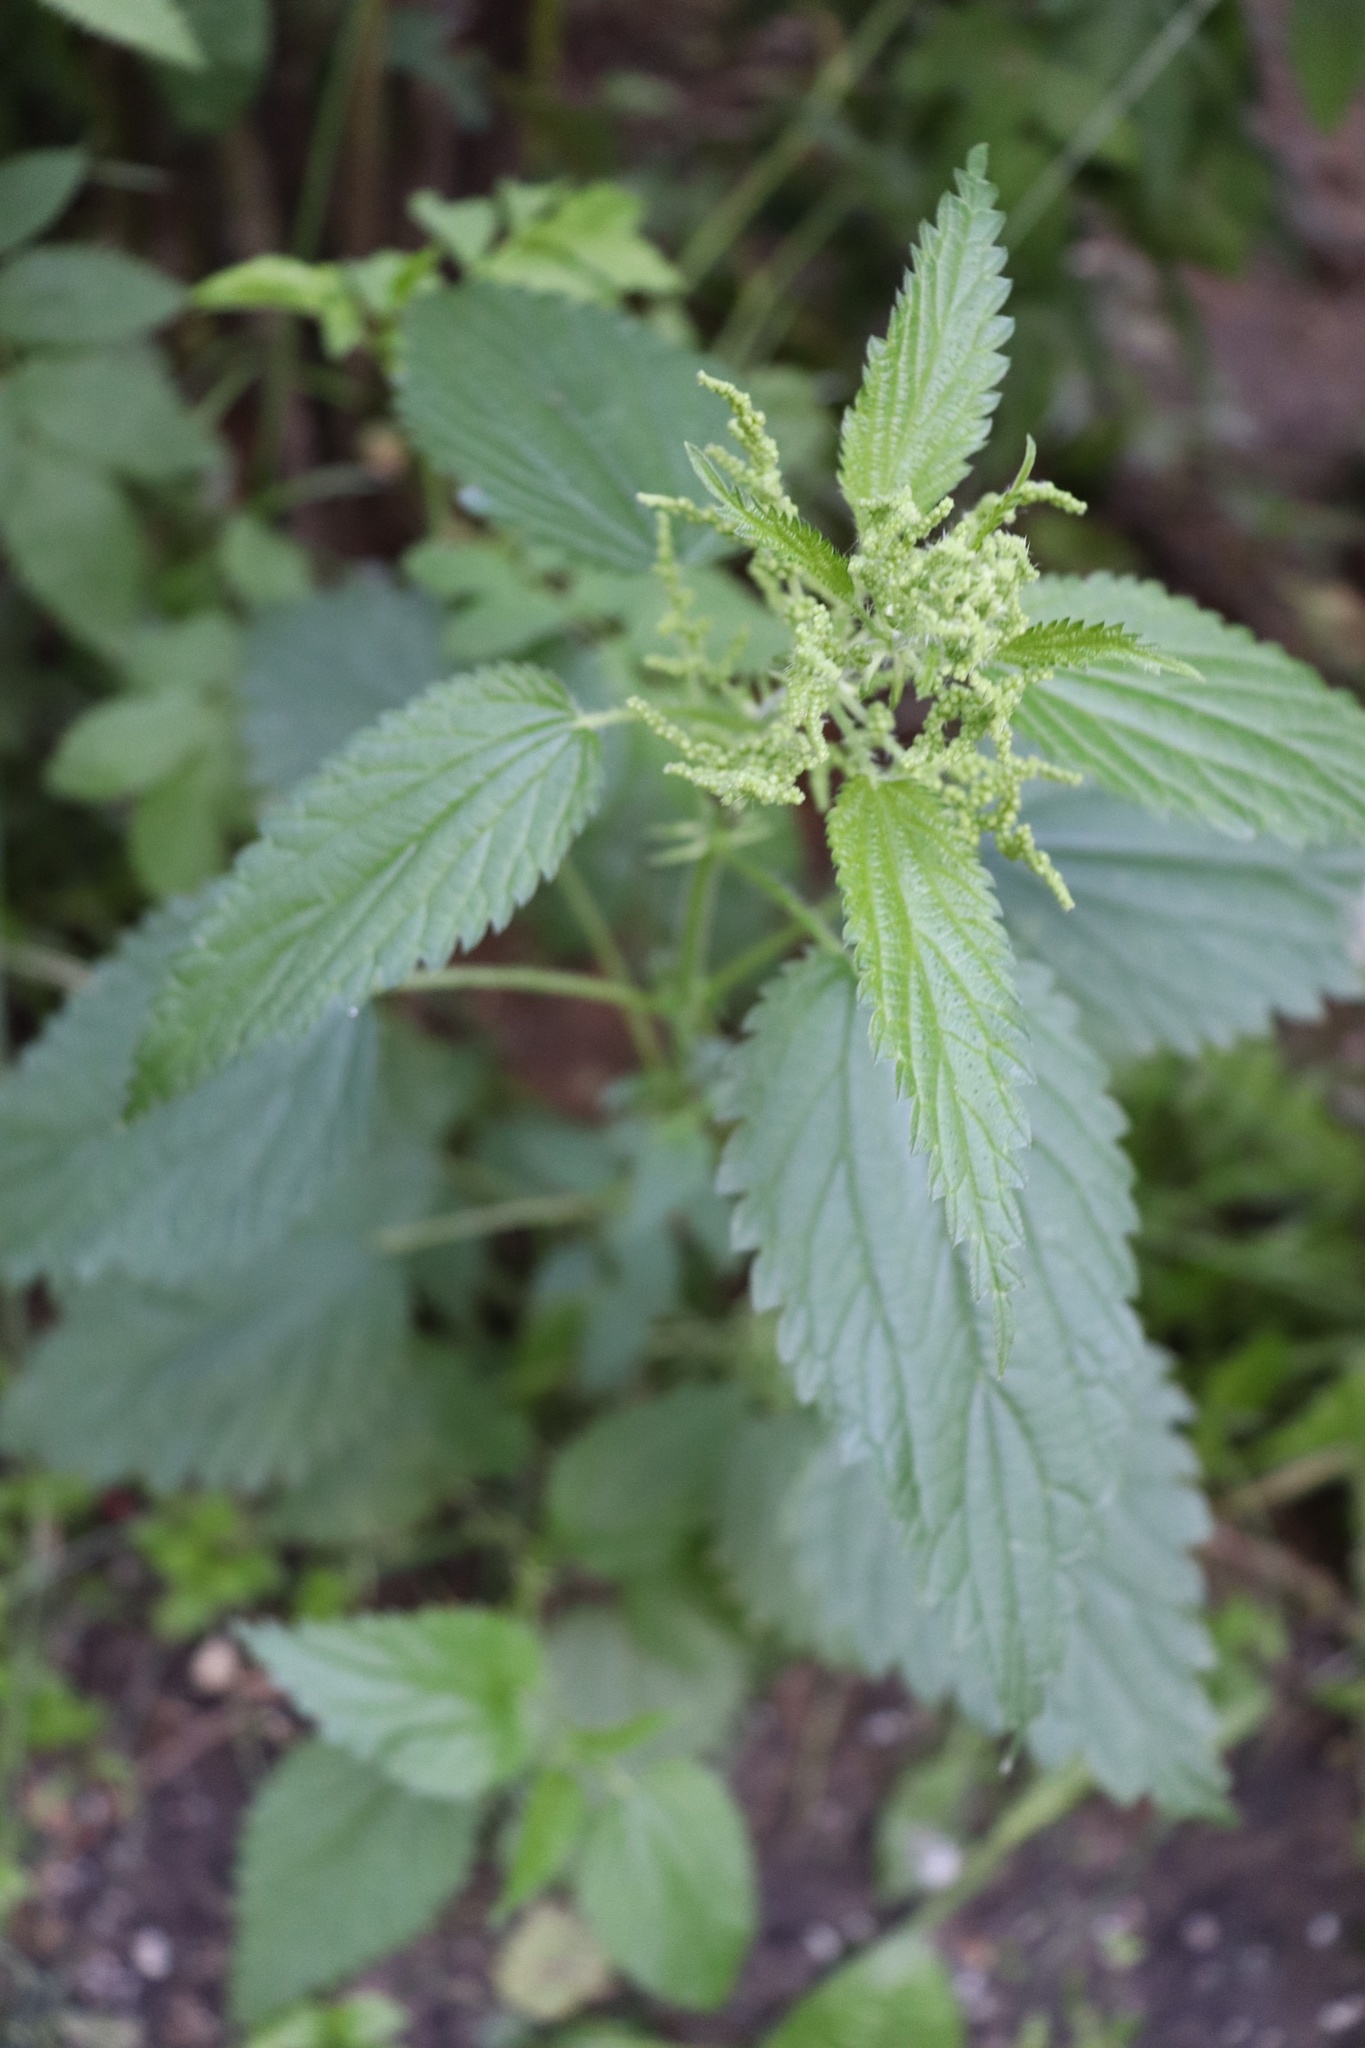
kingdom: Plantae
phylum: Tracheophyta
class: Magnoliopsida
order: Rosales
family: Urticaceae
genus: Urtica
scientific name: Urtica dioica
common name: Common nettle
